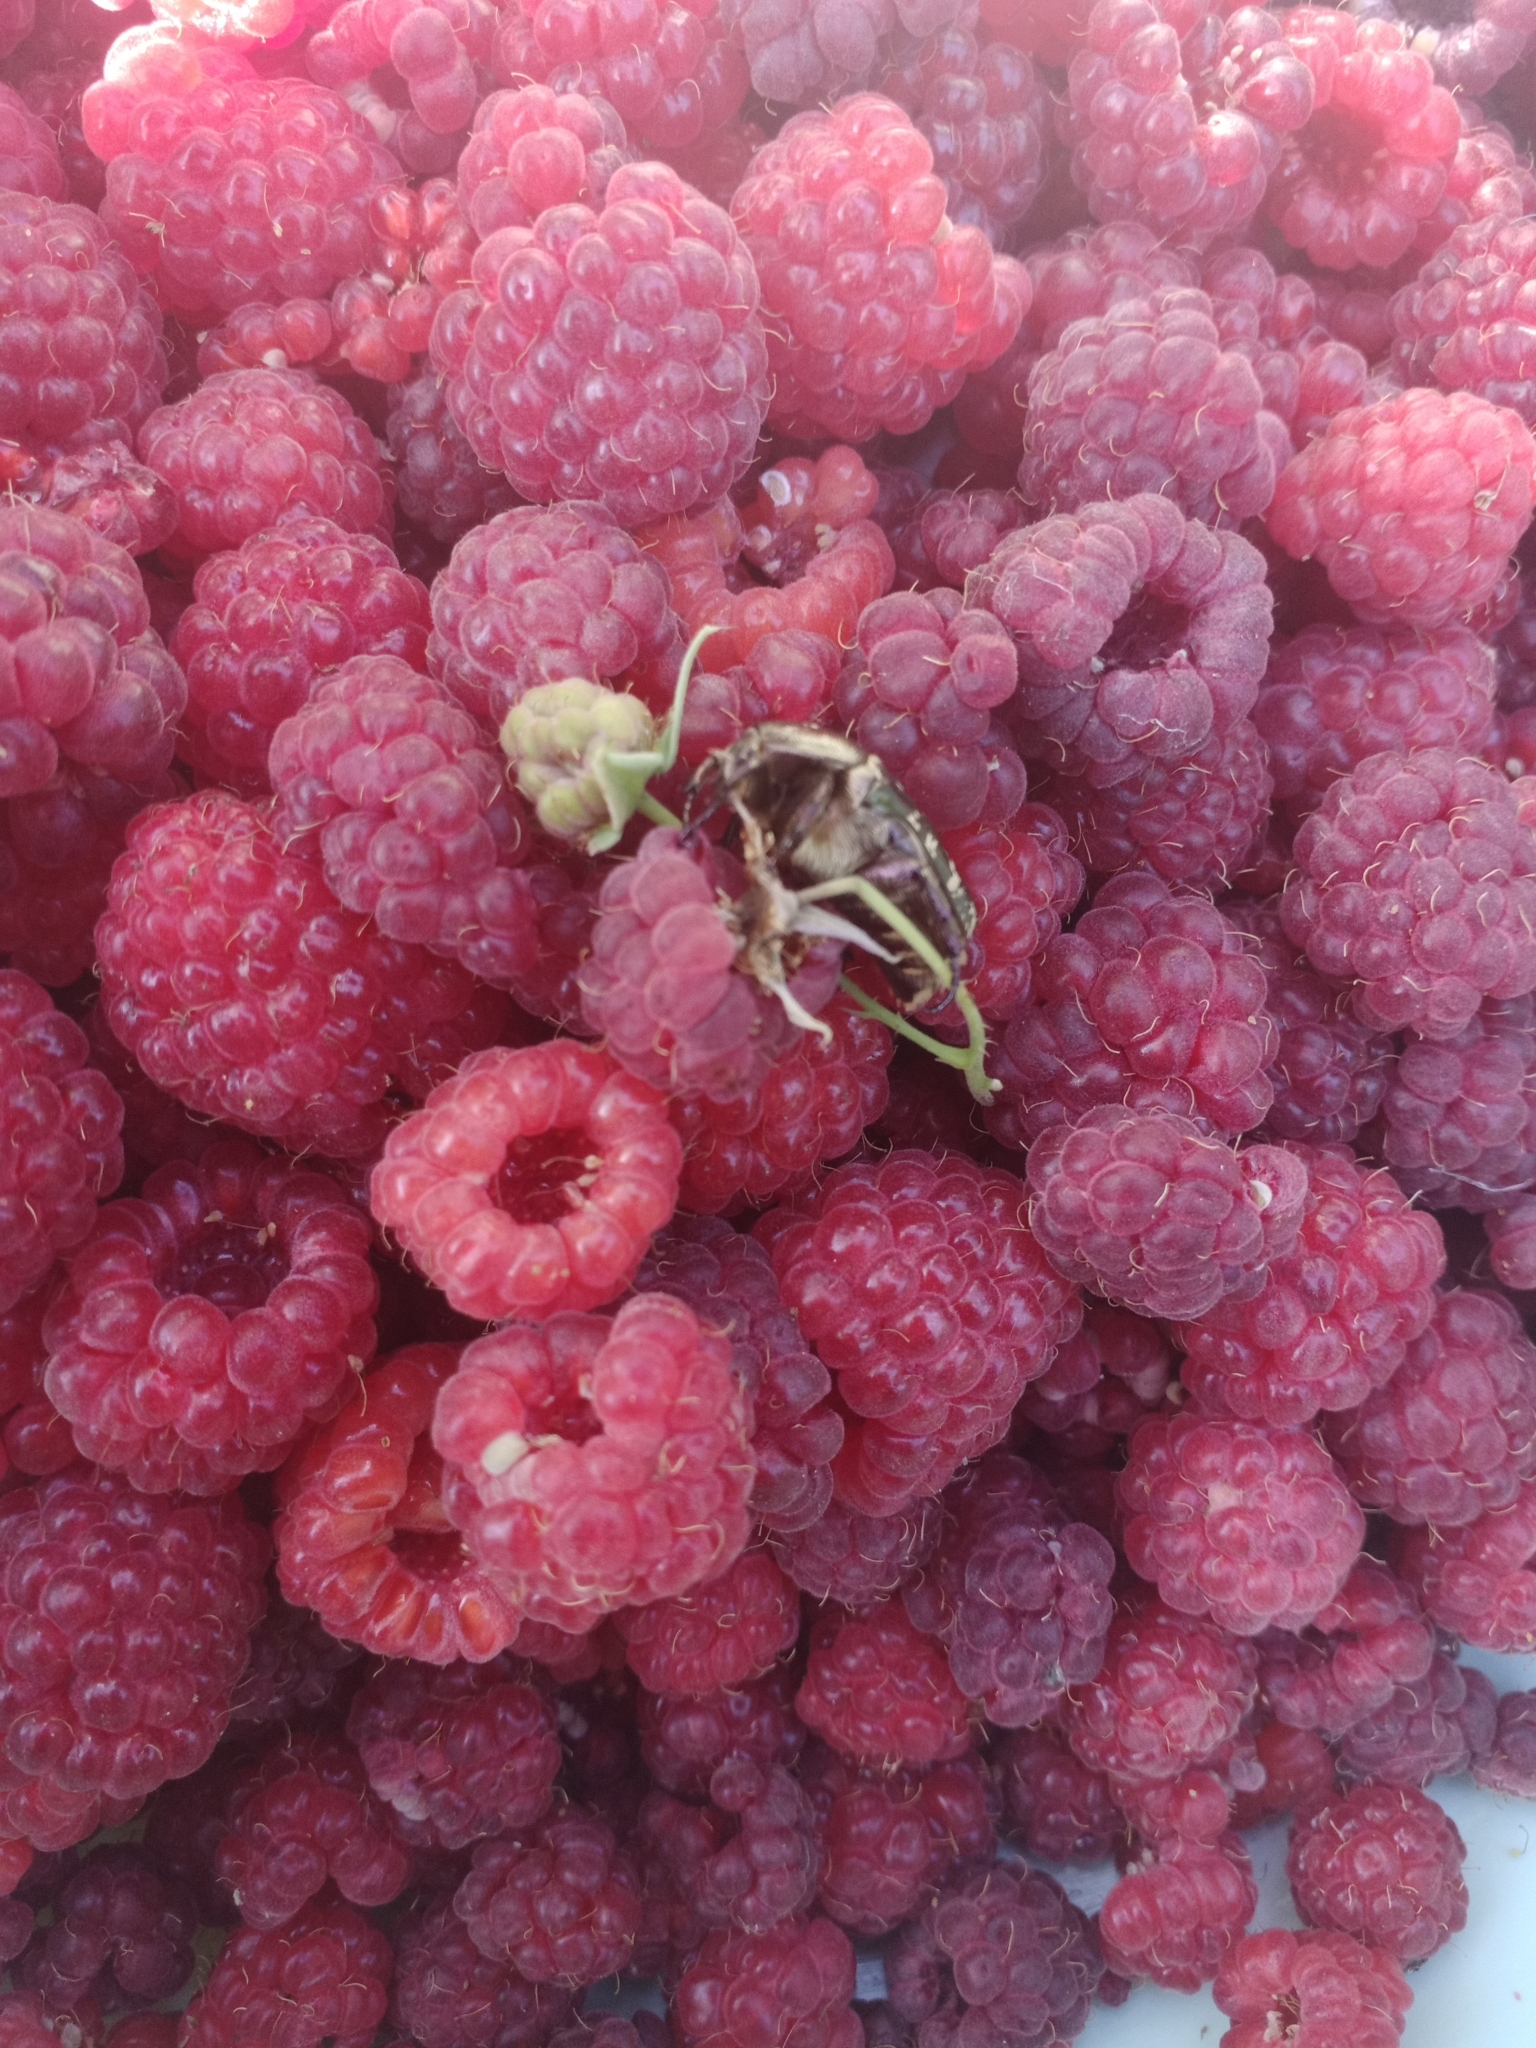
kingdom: Animalia
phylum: Arthropoda
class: Insecta
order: Coleoptera
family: Scarabaeidae
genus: Protaetia
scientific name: Protaetia cuprea
